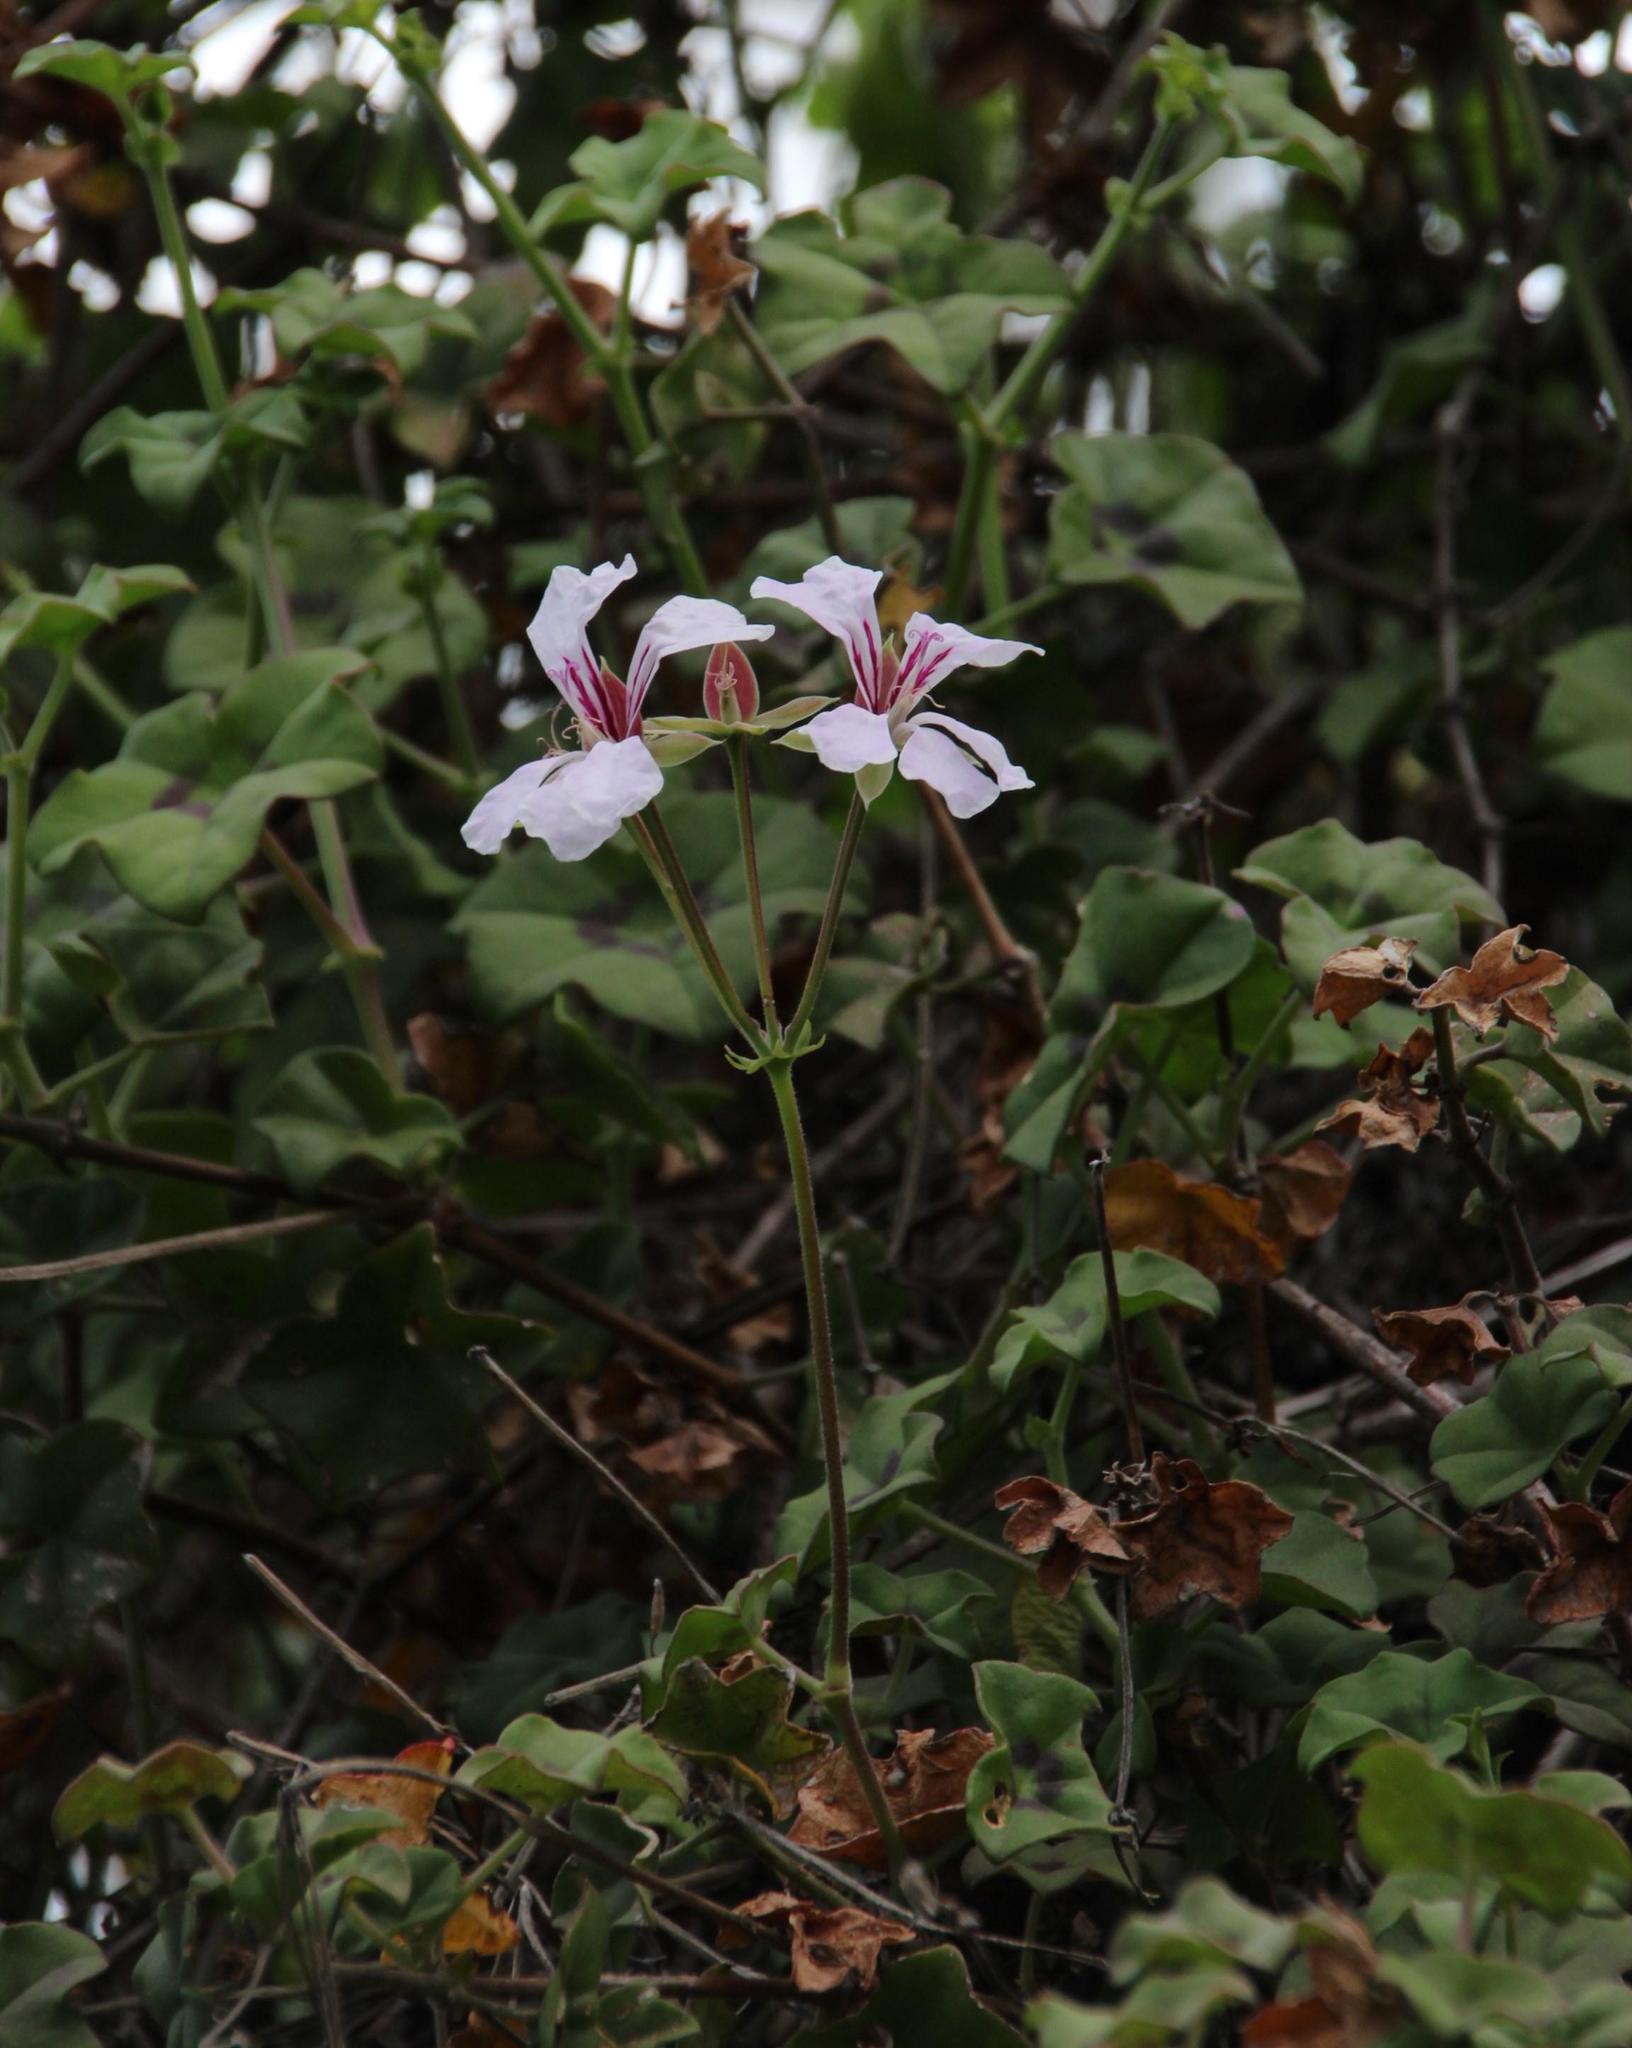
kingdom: Plantae
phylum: Tracheophyta
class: Magnoliopsida
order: Geraniales
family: Geraniaceae
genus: Pelargonium
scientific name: Pelargonium peltatum
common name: Ivyleaf geranium
